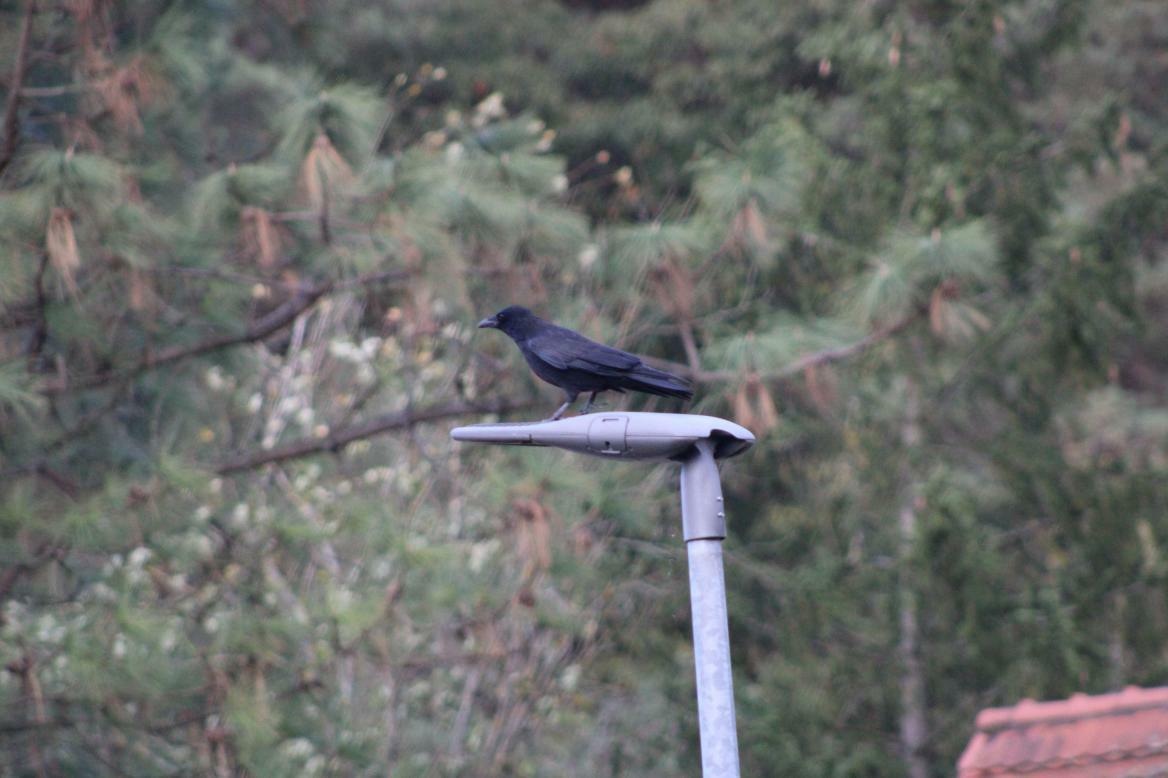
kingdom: Animalia
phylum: Chordata
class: Aves
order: Passeriformes
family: Corvidae
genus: Corvus
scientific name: Corvus corone
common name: Carrion crow
